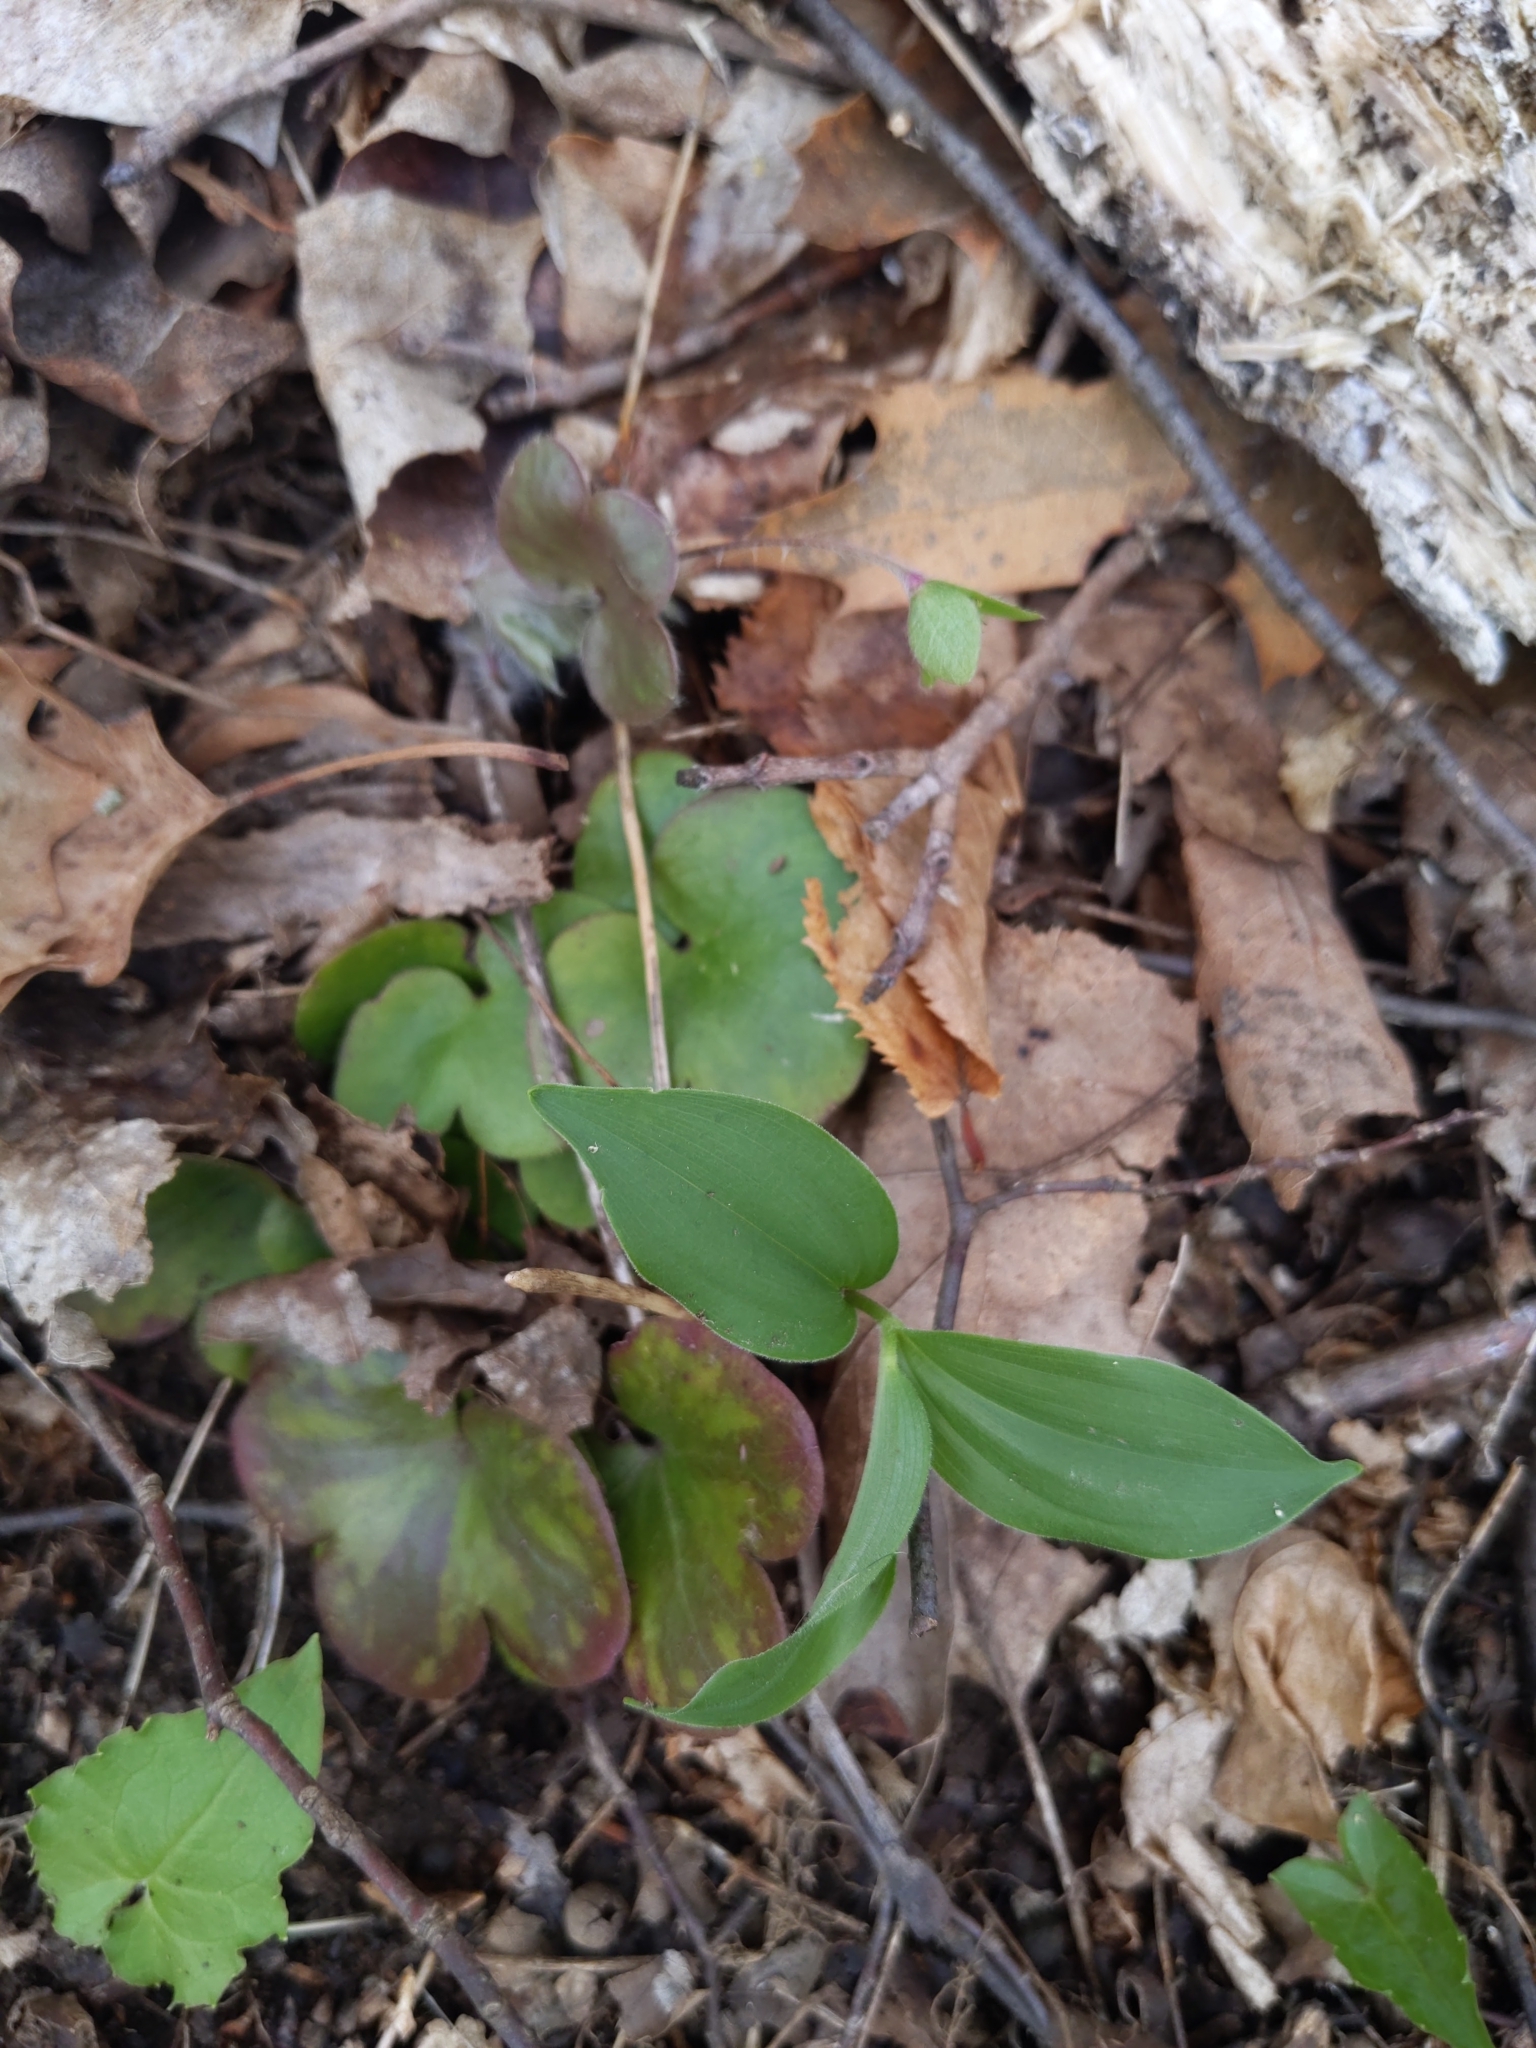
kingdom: Plantae
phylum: Tracheophyta
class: Liliopsida
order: Asparagales
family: Asparagaceae
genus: Maianthemum
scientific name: Maianthemum racemosum
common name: False spikenard
